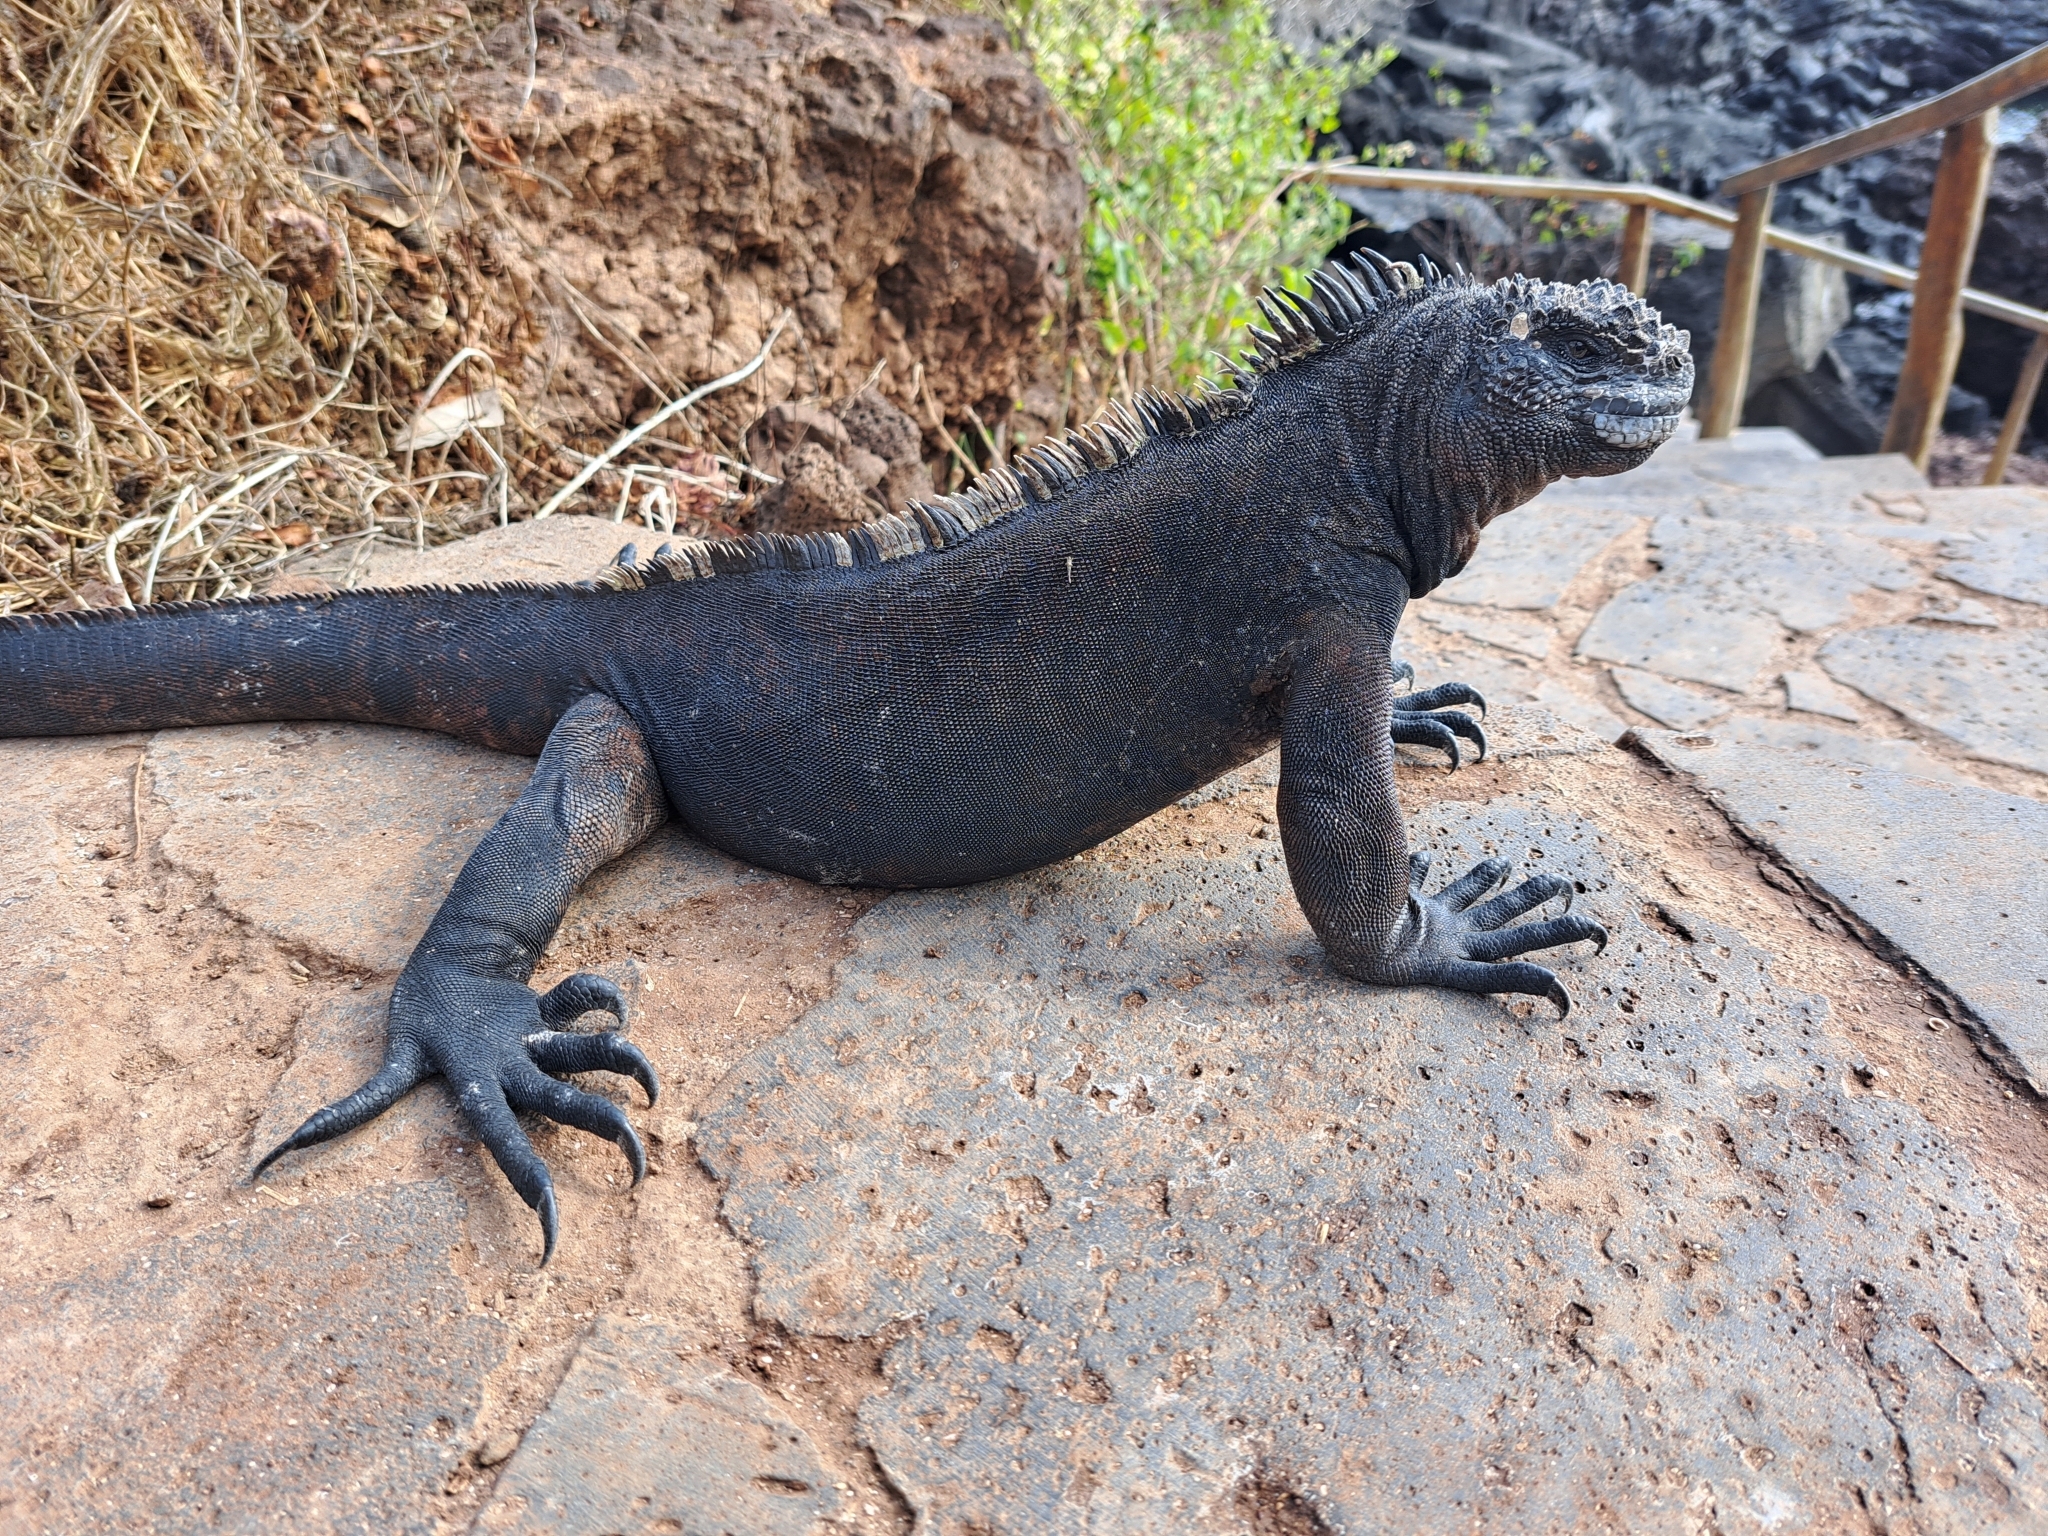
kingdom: Animalia
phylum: Chordata
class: Squamata
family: Iguanidae
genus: Amblyrhynchus
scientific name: Amblyrhynchus cristatus
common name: Marine iguana
